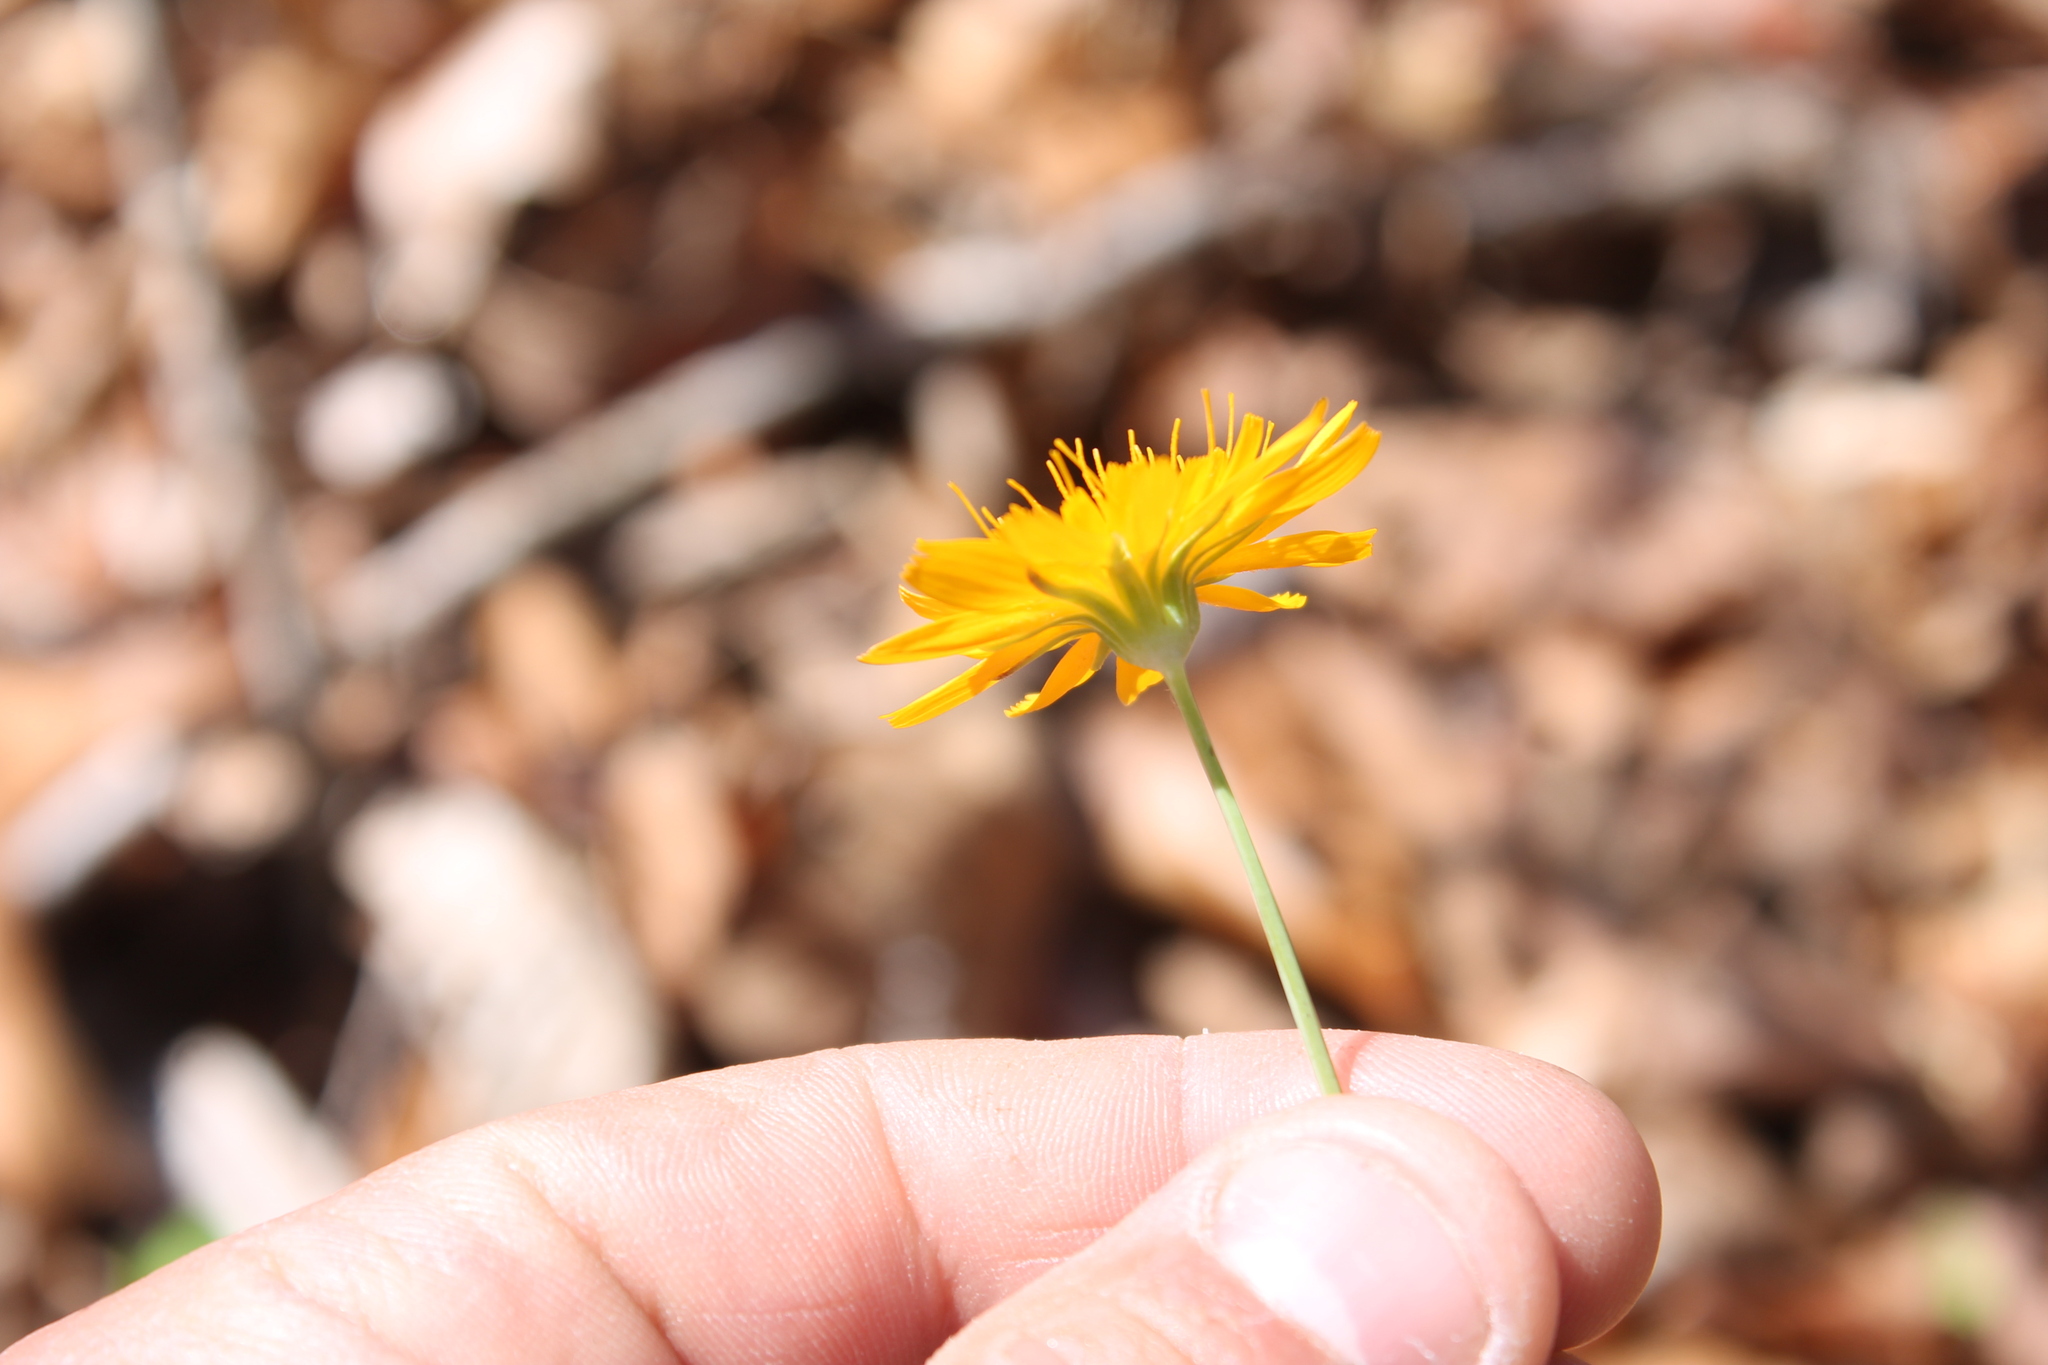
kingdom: Plantae
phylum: Tracheophyta
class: Magnoliopsida
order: Asterales
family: Asteraceae
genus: Krigia
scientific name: Krigia biflora
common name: Orange dwarf-dandelion
